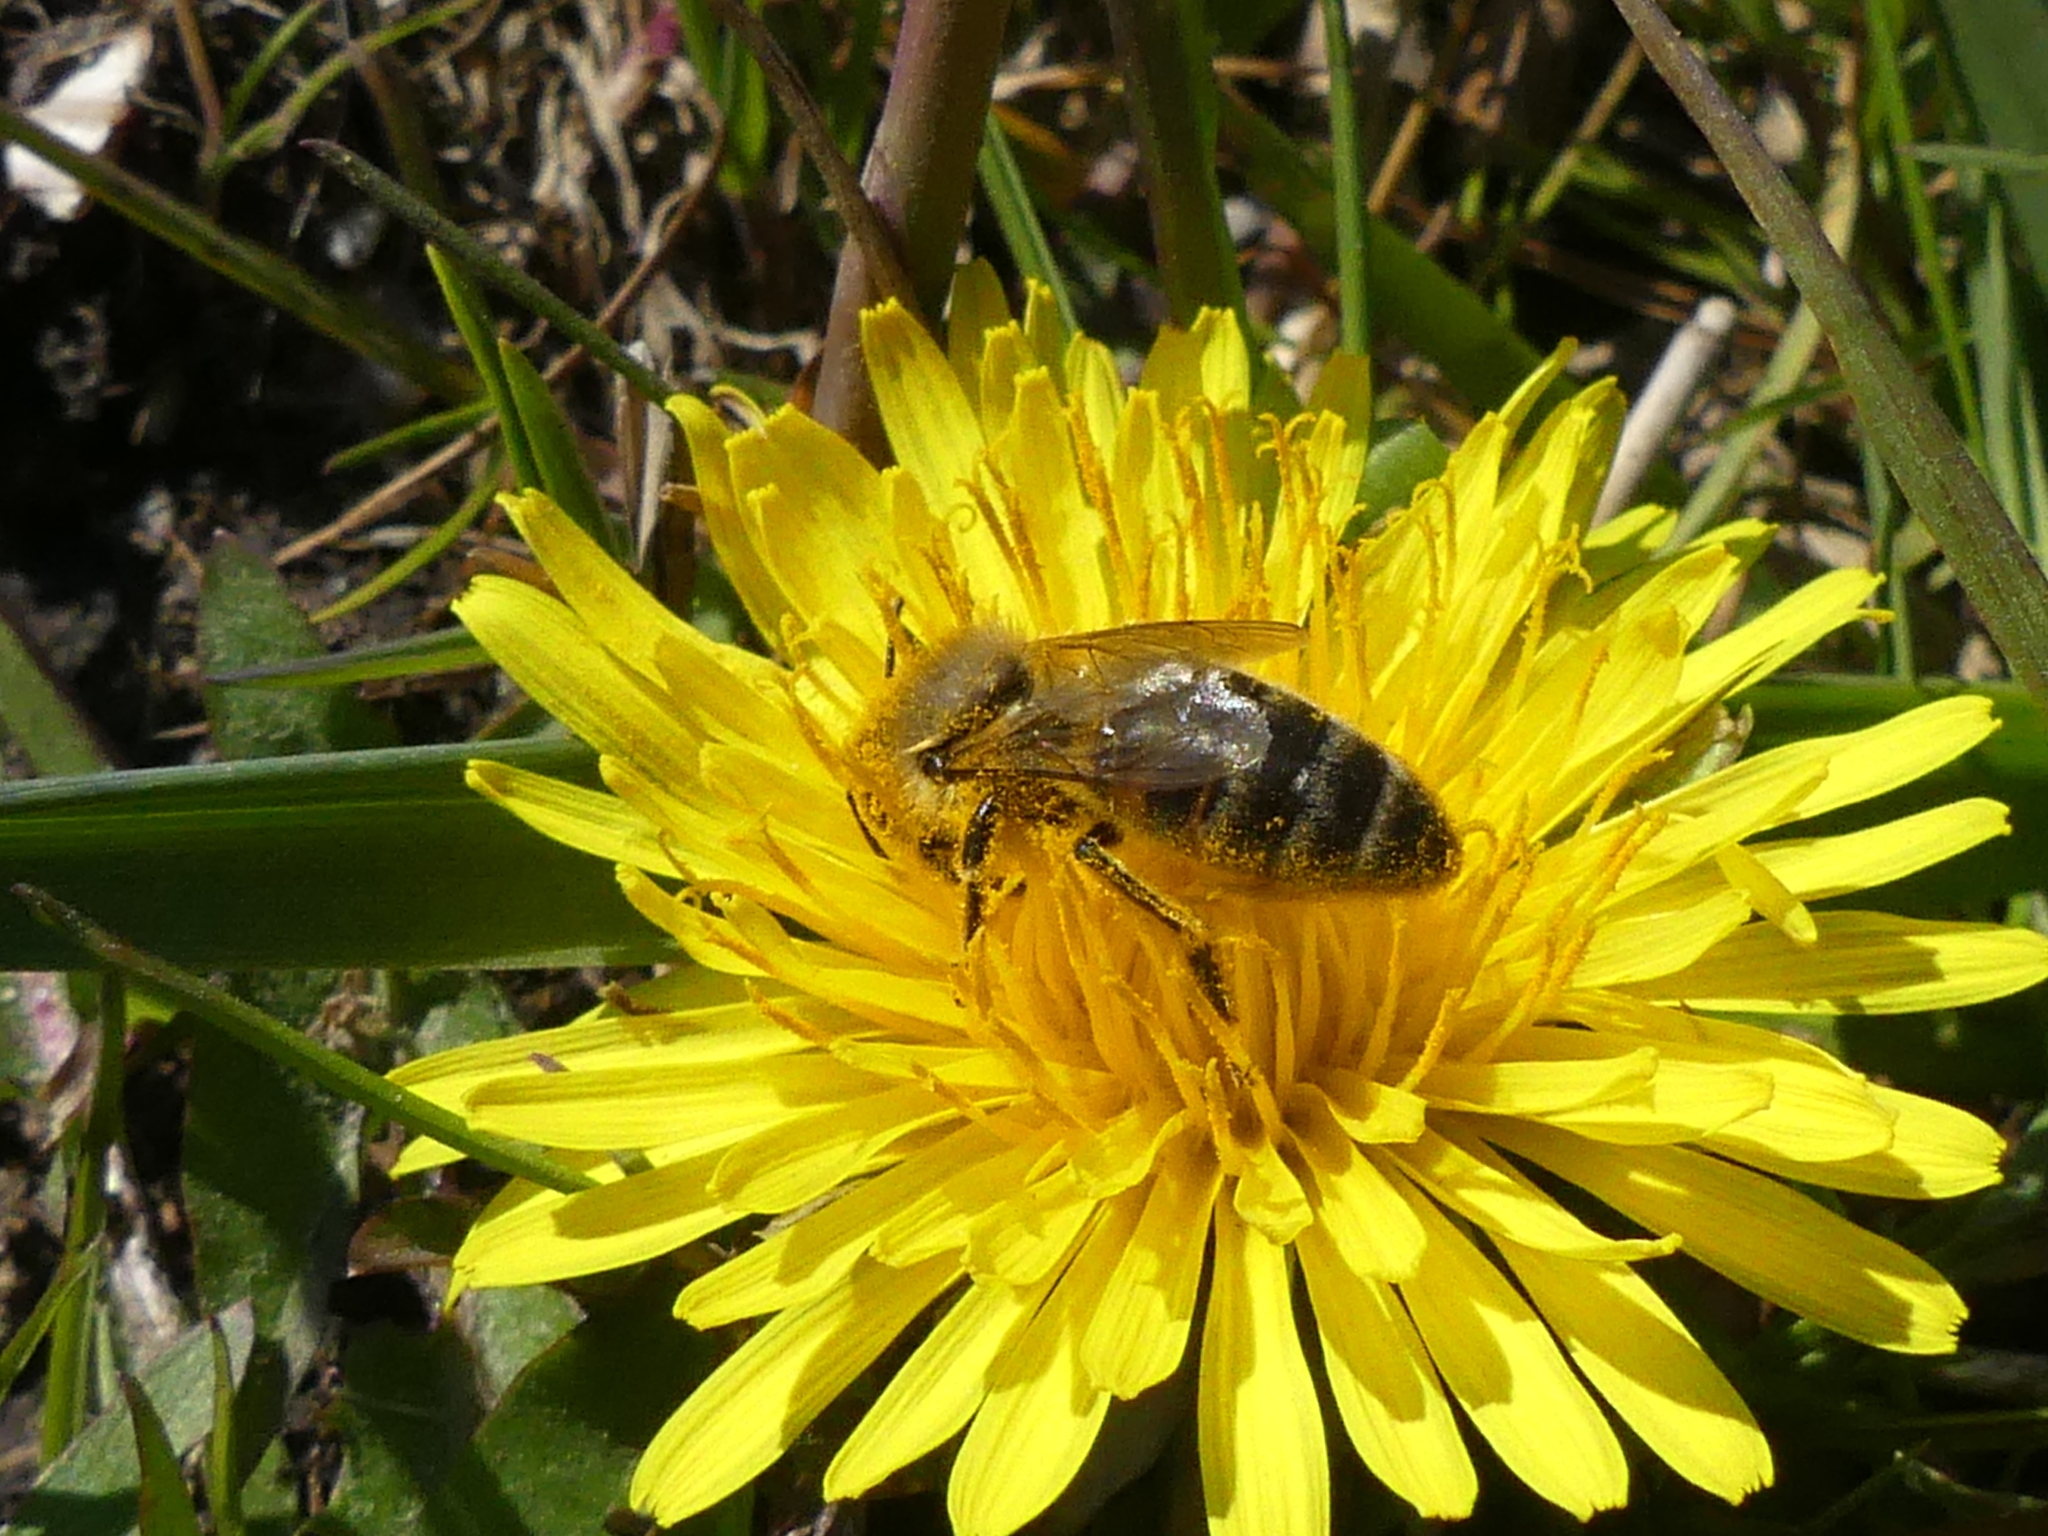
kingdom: Animalia
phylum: Arthropoda
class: Insecta
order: Hymenoptera
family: Apidae
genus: Apis
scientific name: Apis mellifera
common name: Honey bee
